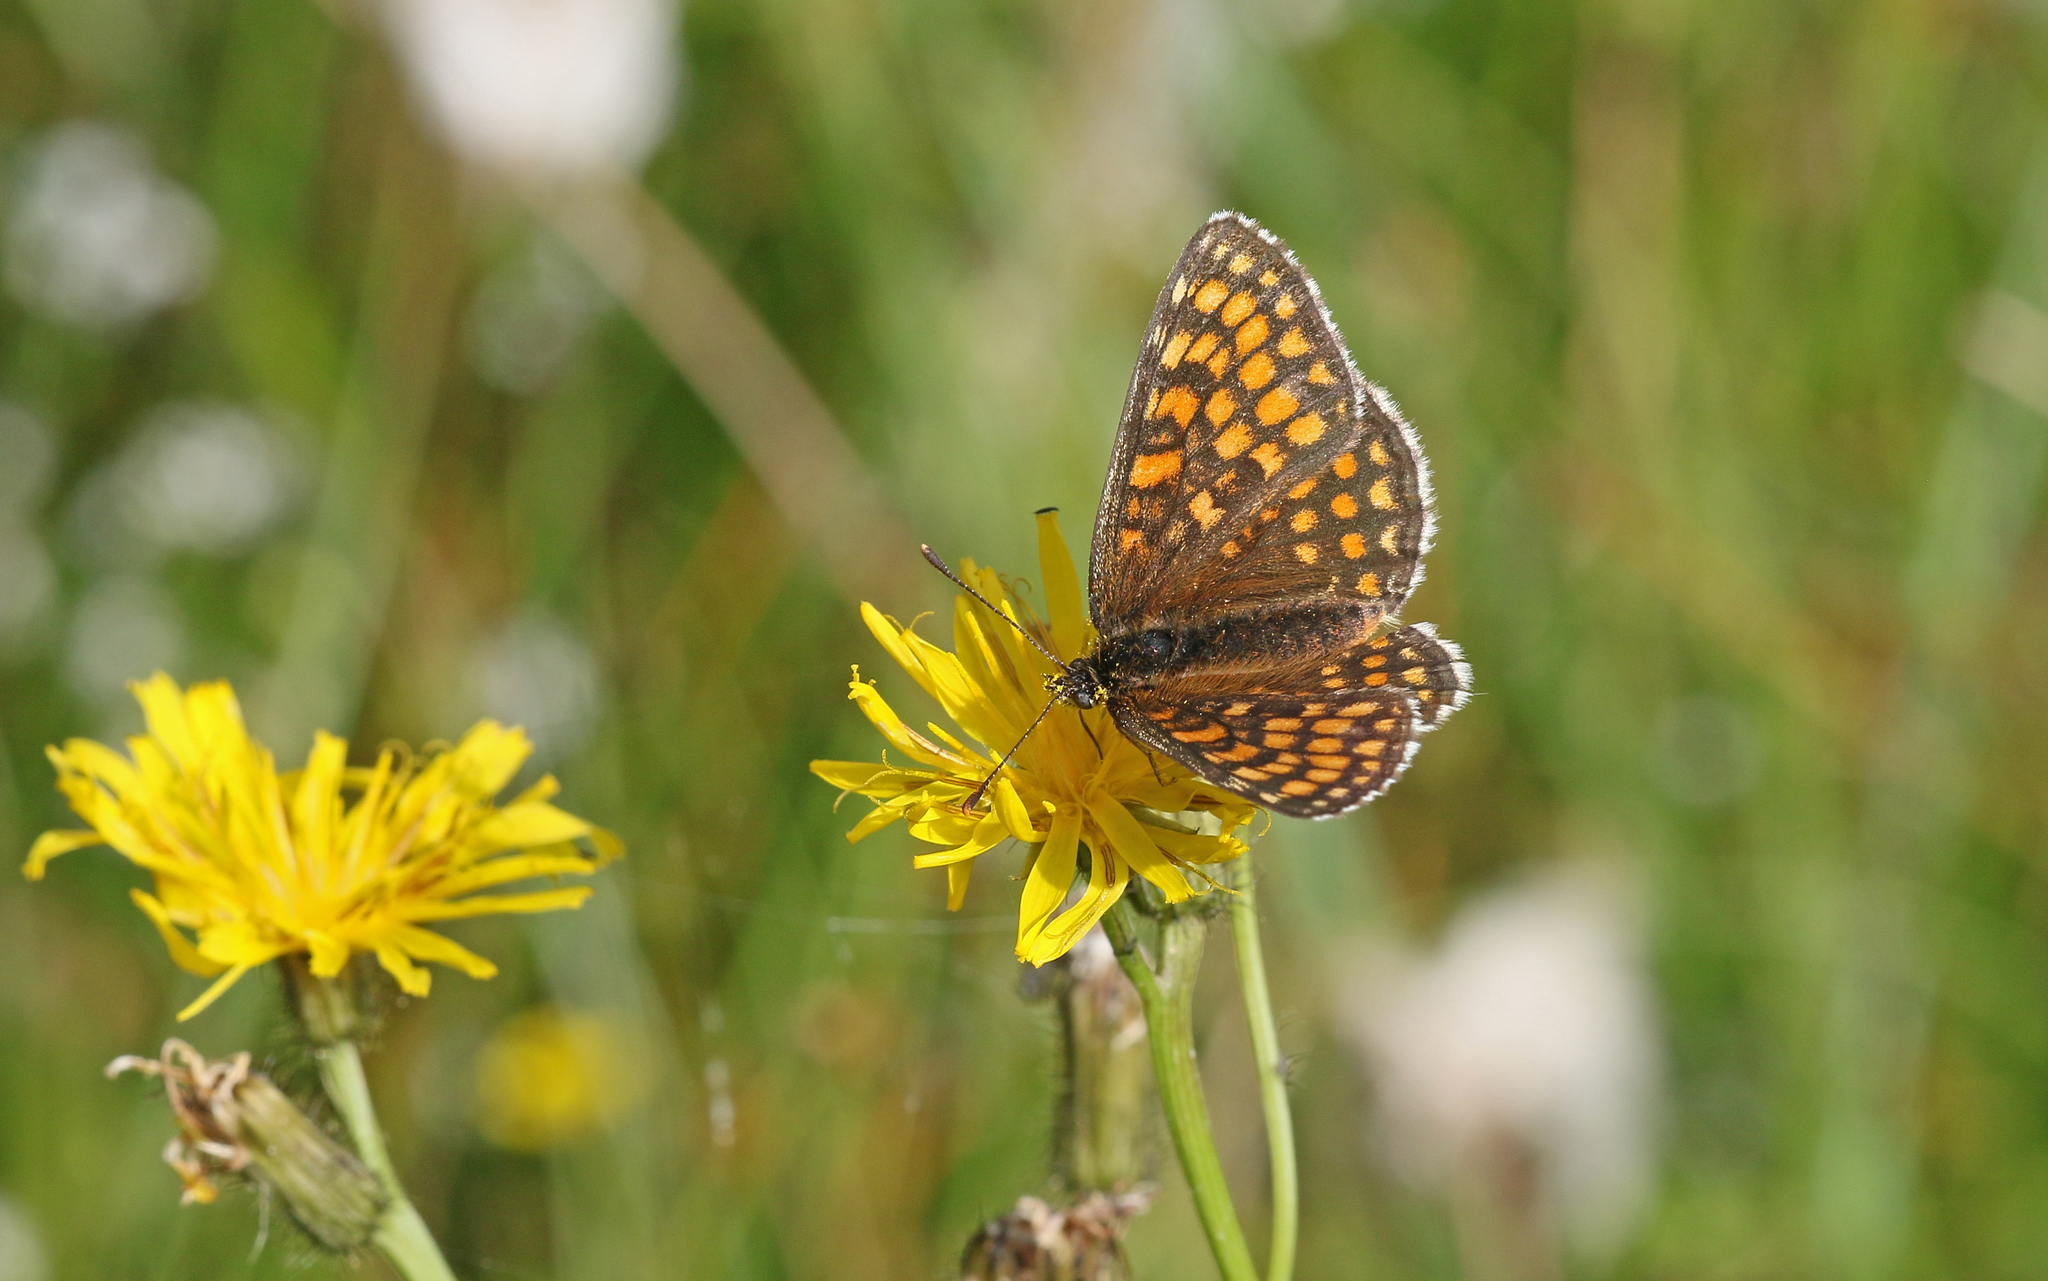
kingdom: Animalia
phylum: Arthropoda
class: Insecta
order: Lepidoptera
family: Nymphalidae
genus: Melitaea
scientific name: Melitaea athalia
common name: Heath fritillary
